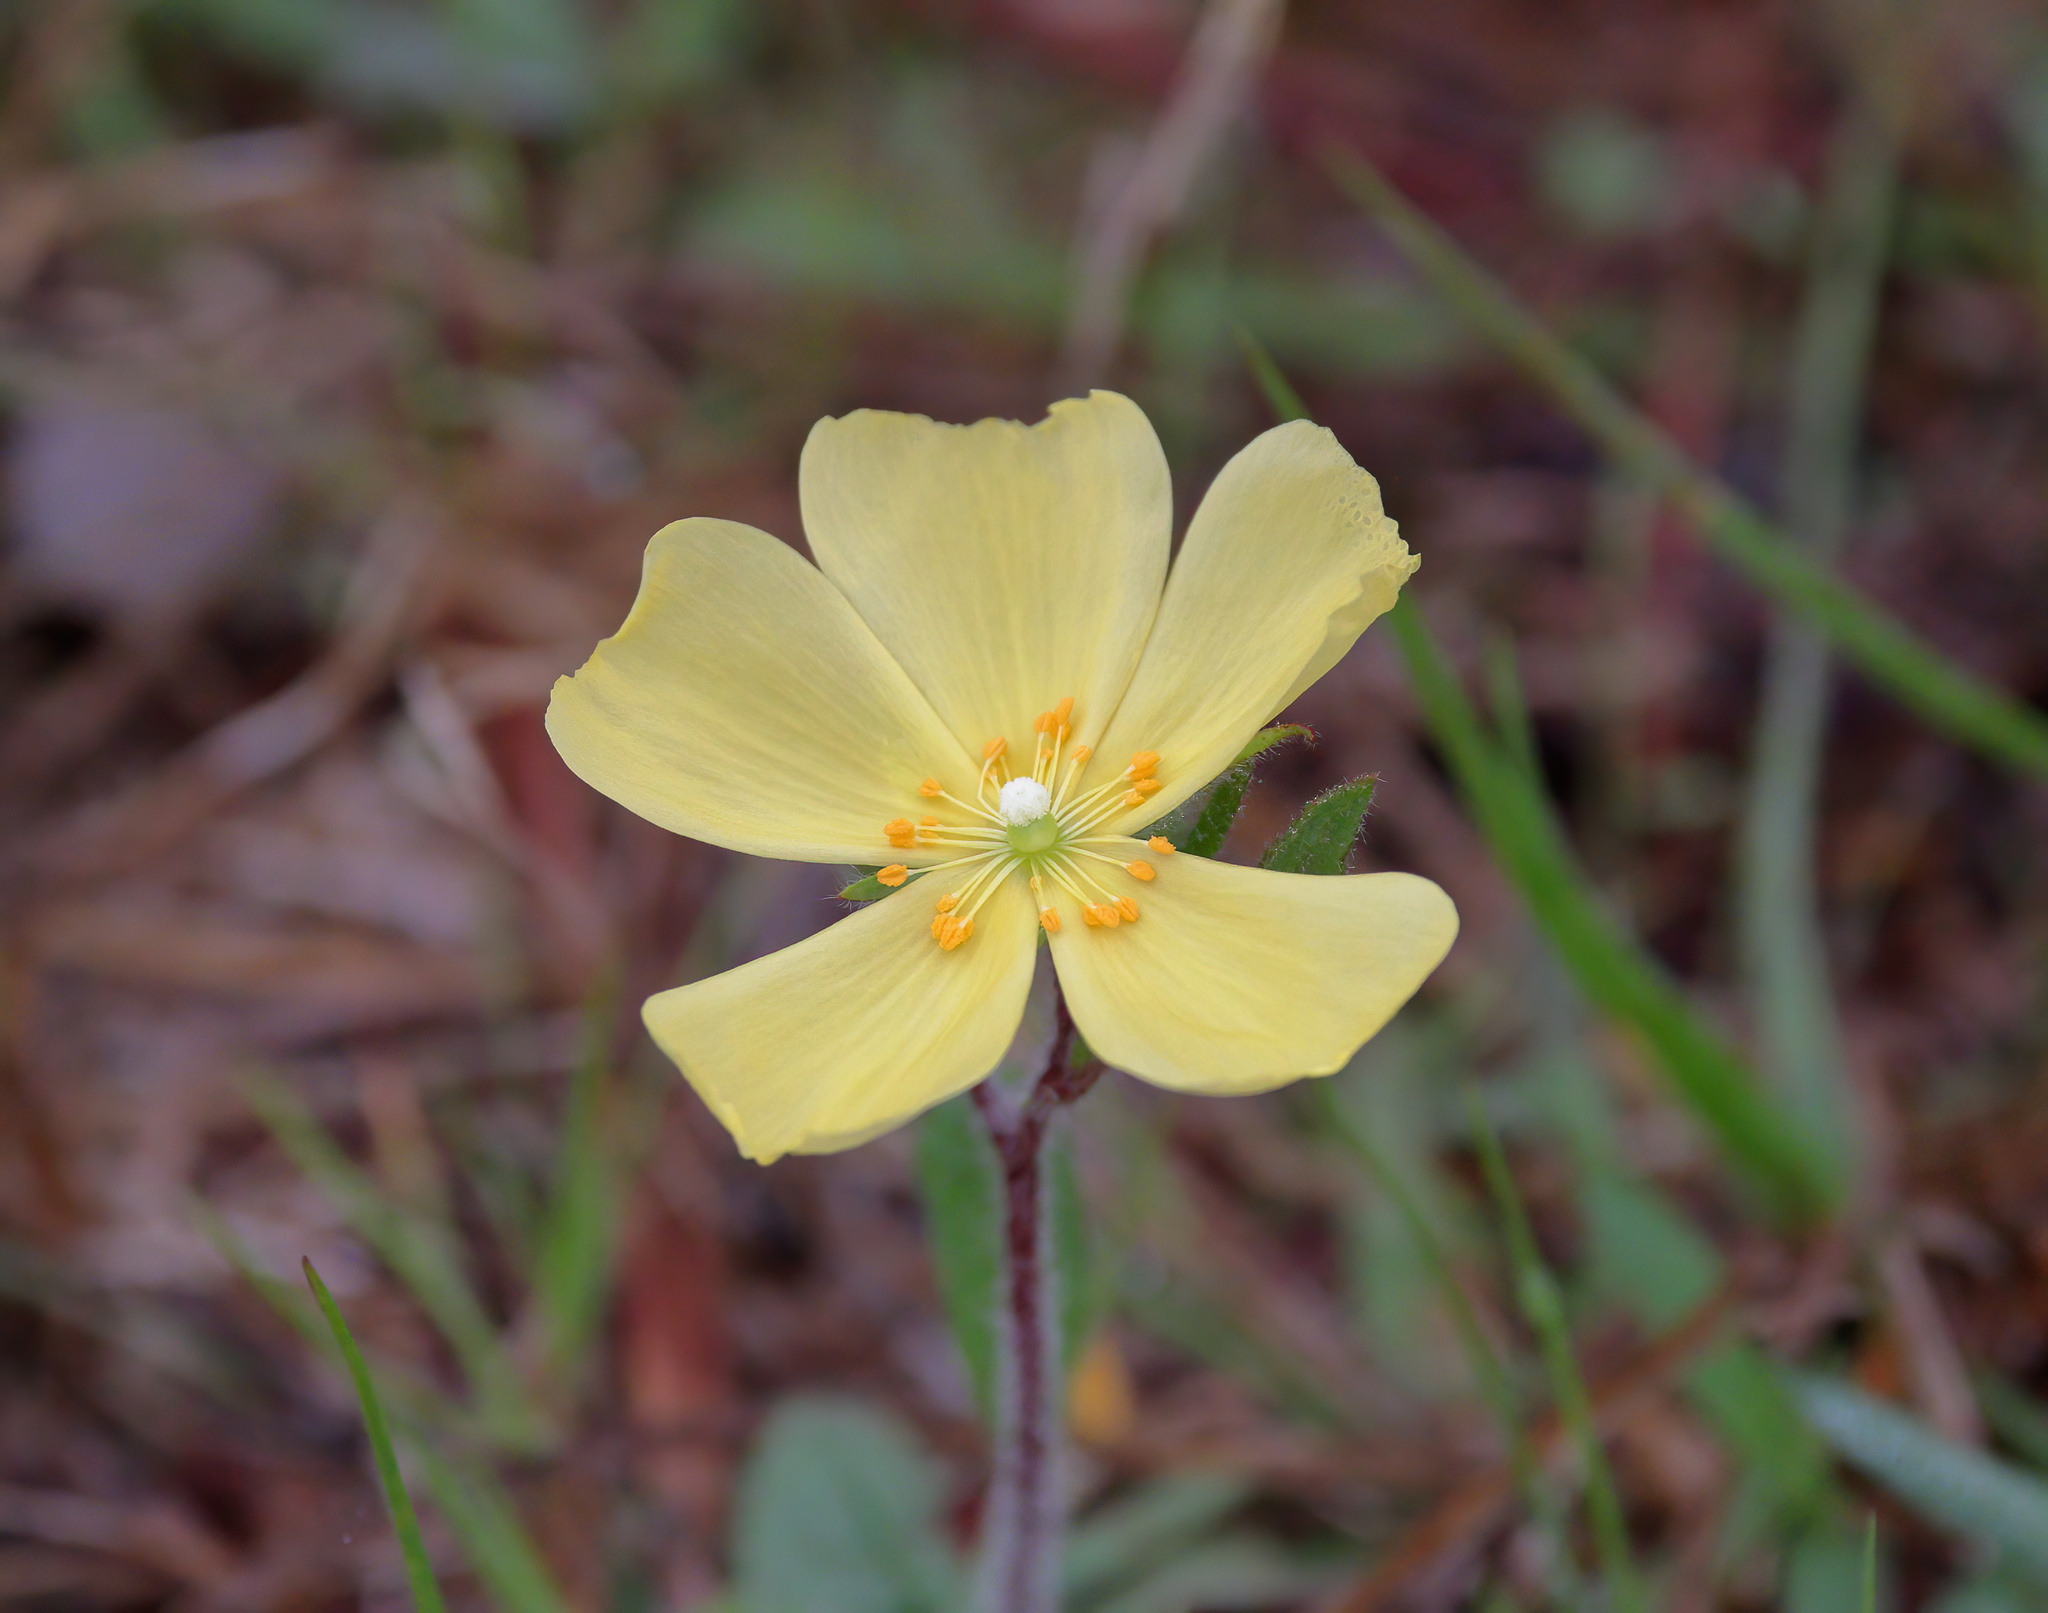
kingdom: Plantae
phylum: Tracheophyta
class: Magnoliopsida
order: Malvales
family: Cistaceae
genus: Crocanthemum
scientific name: Crocanthemum carolinianum
